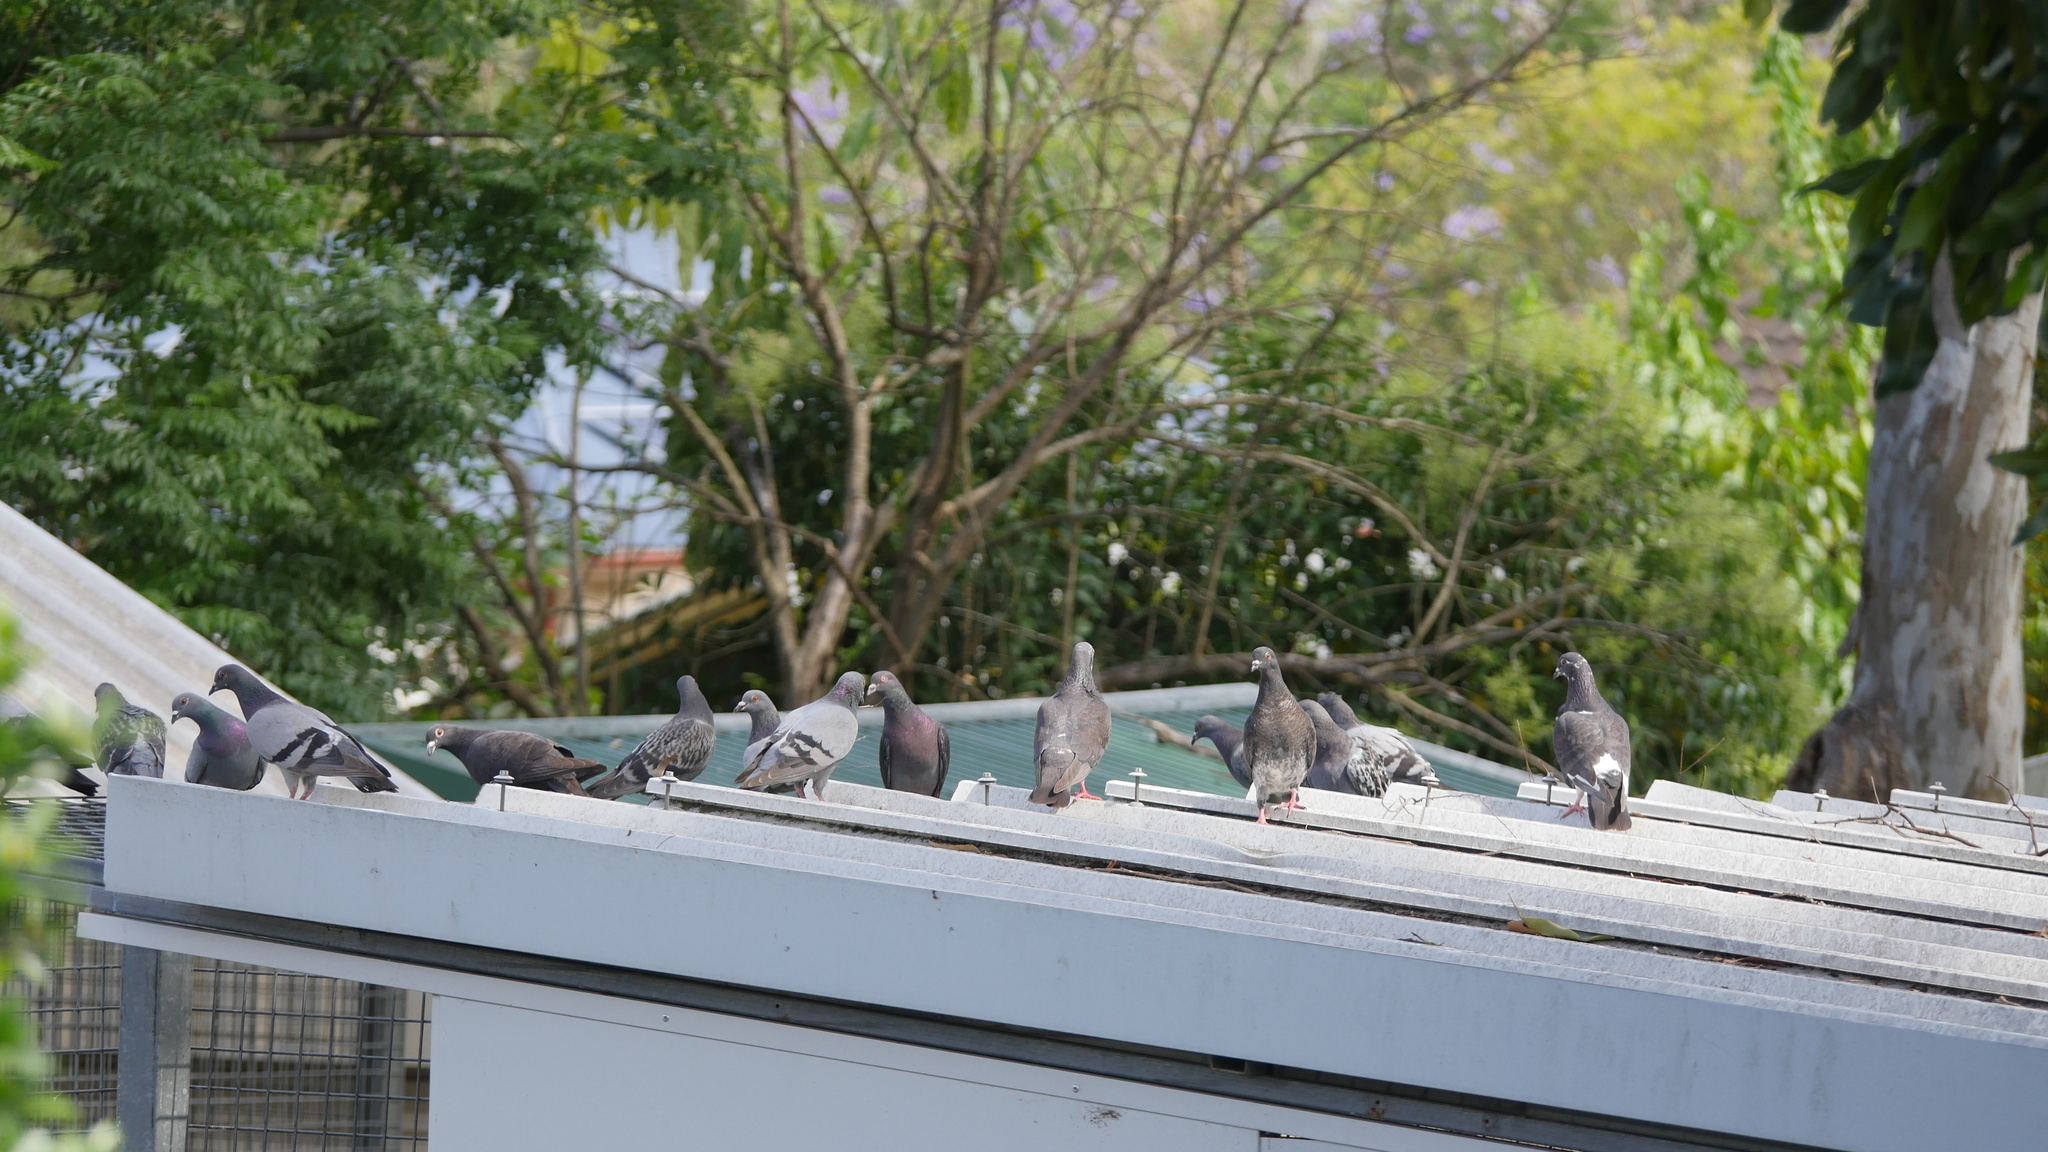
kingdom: Animalia
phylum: Chordata
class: Aves
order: Columbiformes
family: Columbidae
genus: Columba
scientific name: Columba livia
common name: Rock pigeon
